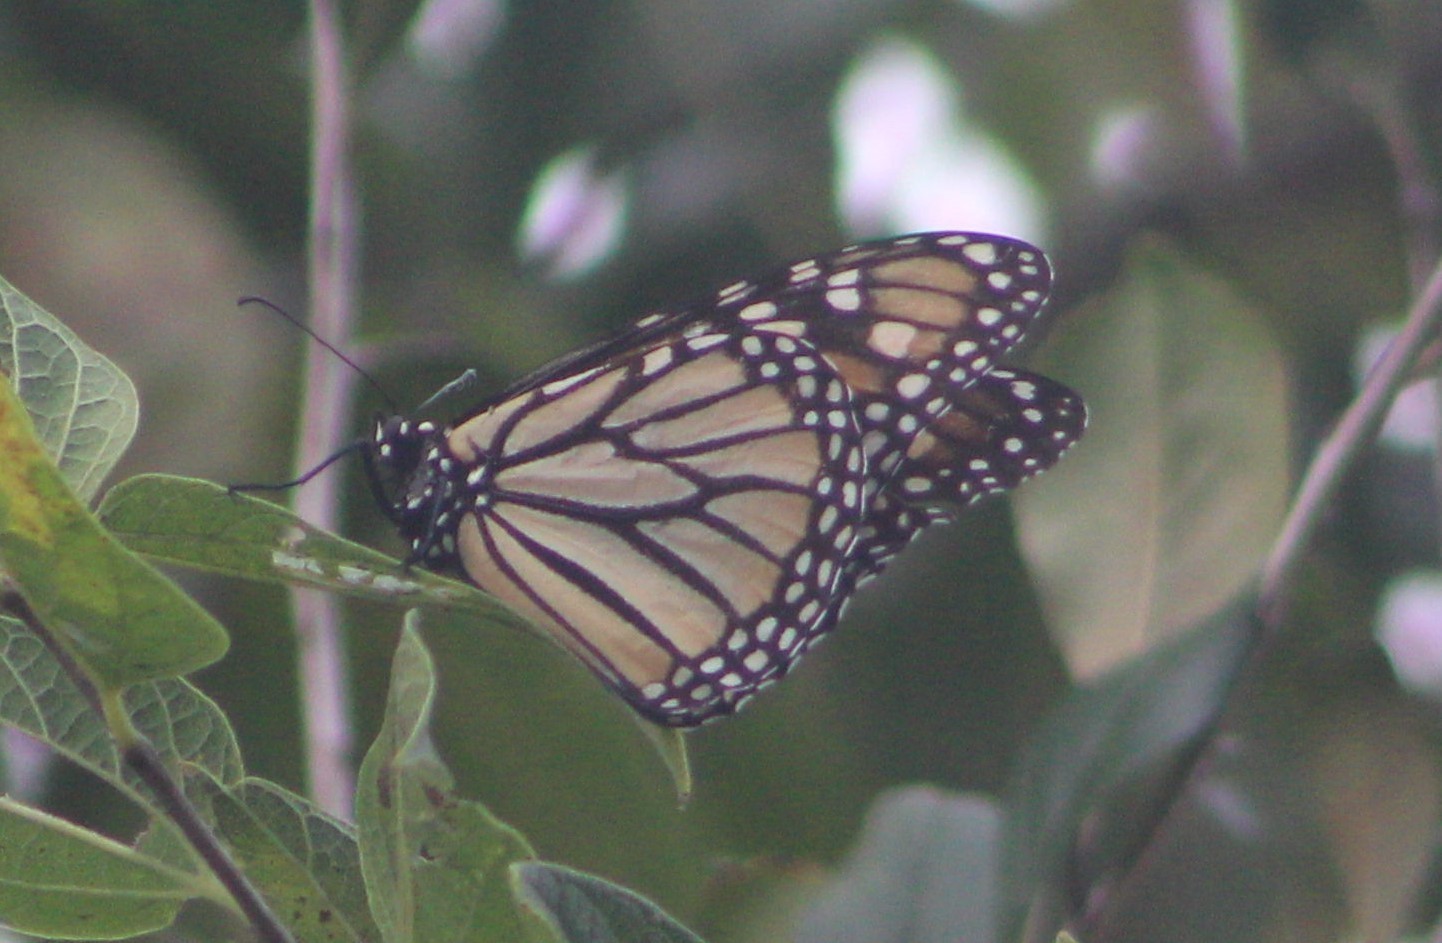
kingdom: Animalia
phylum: Arthropoda
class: Insecta
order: Lepidoptera
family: Nymphalidae
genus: Danaus
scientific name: Danaus plexippus
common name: Monarch
